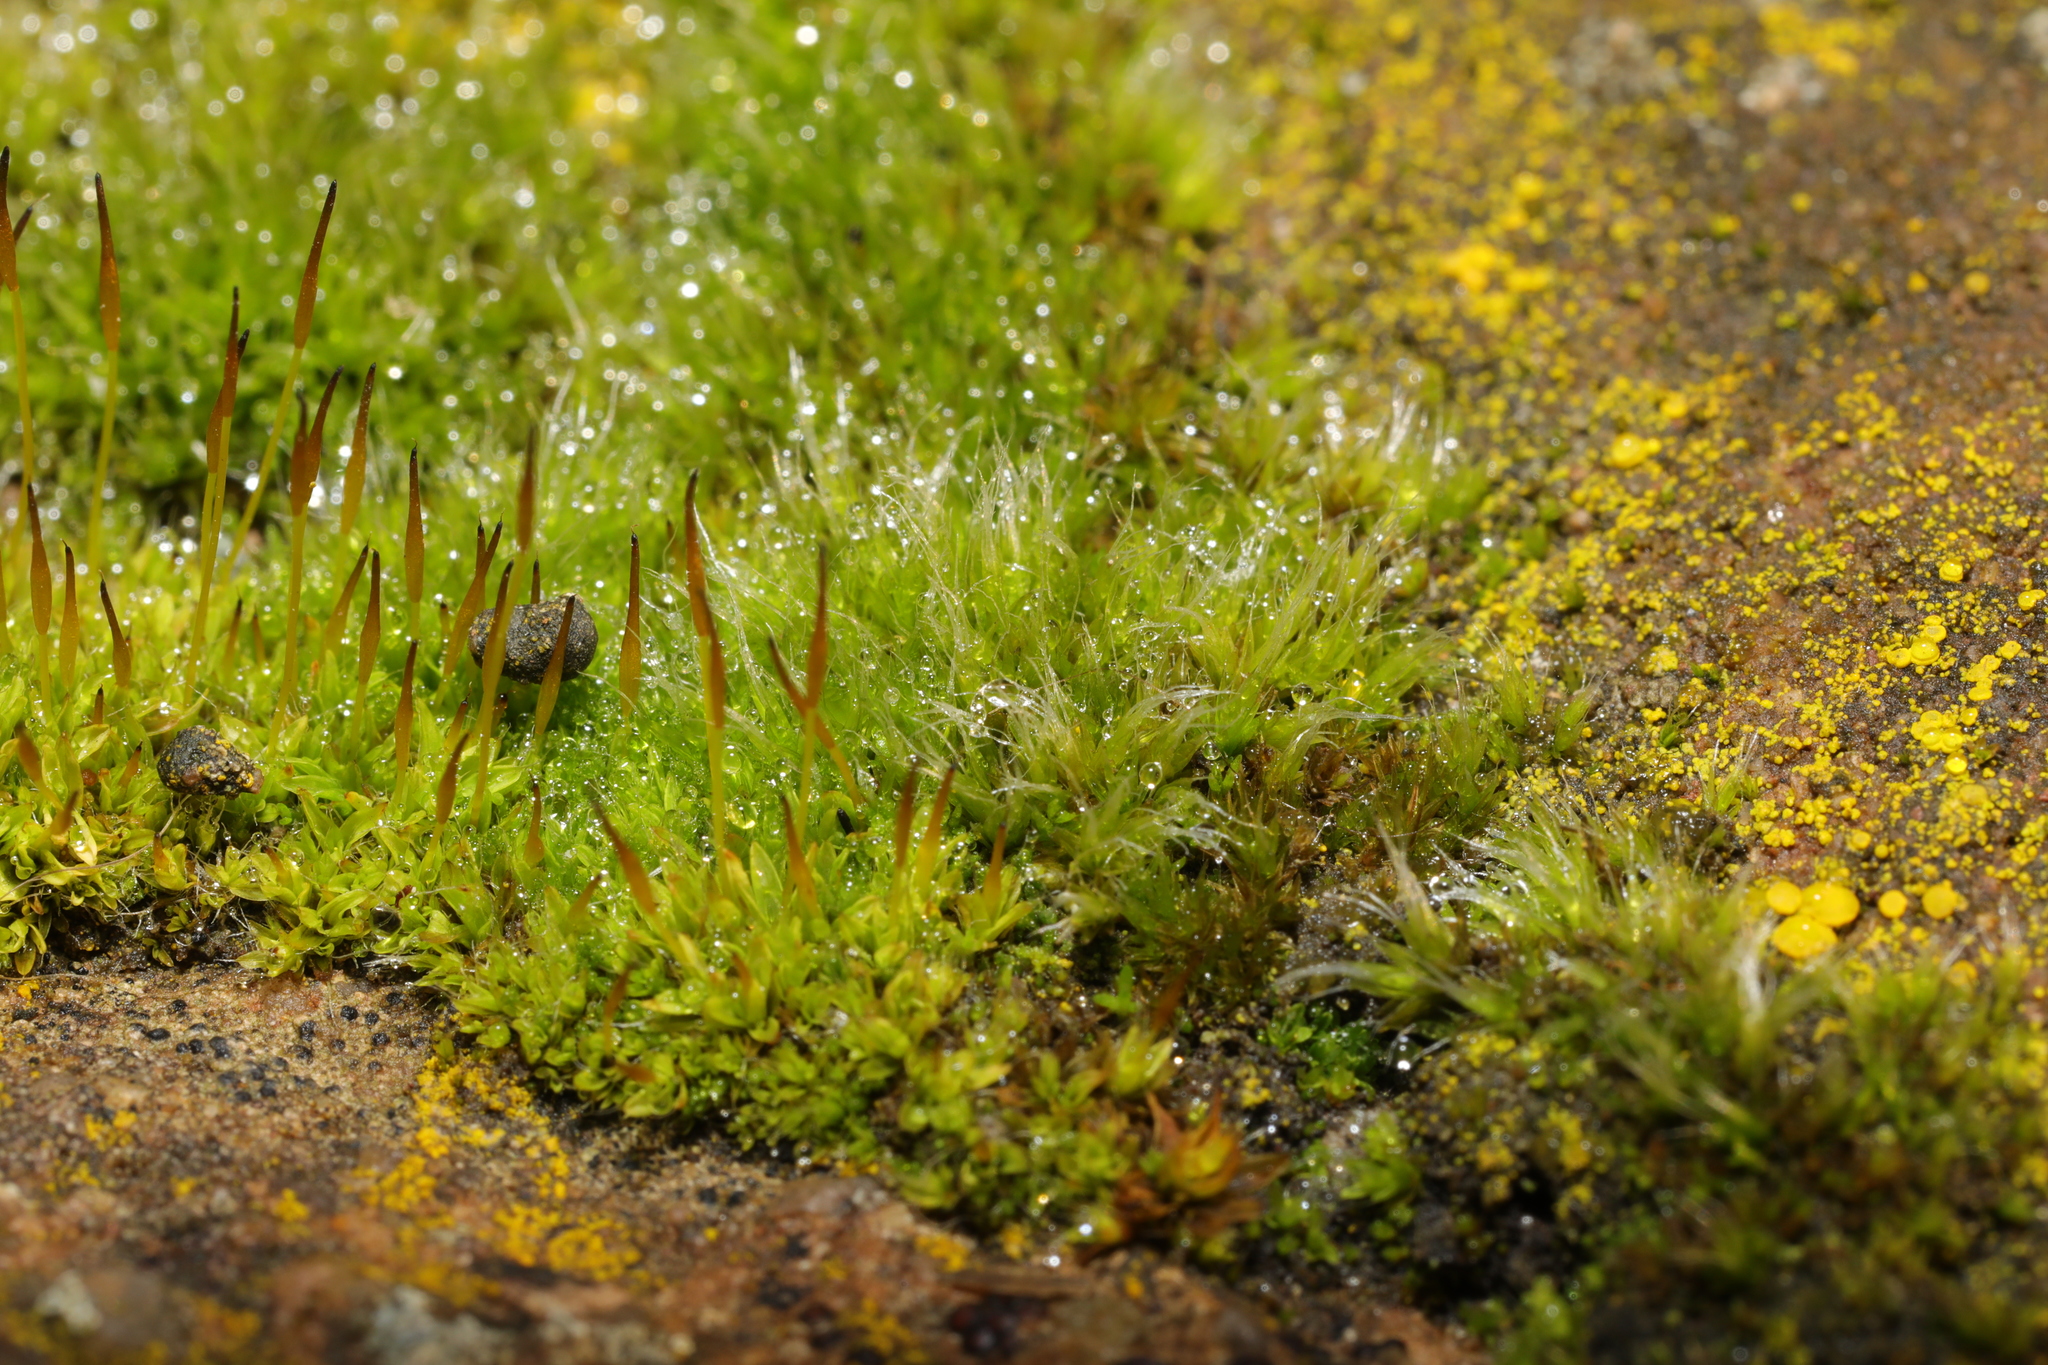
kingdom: Plantae
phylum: Bryophyta
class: Bryopsida
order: Pottiales
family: Pottiaceae
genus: Tortula
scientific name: Tortula muralis
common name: Wall screw-moss
